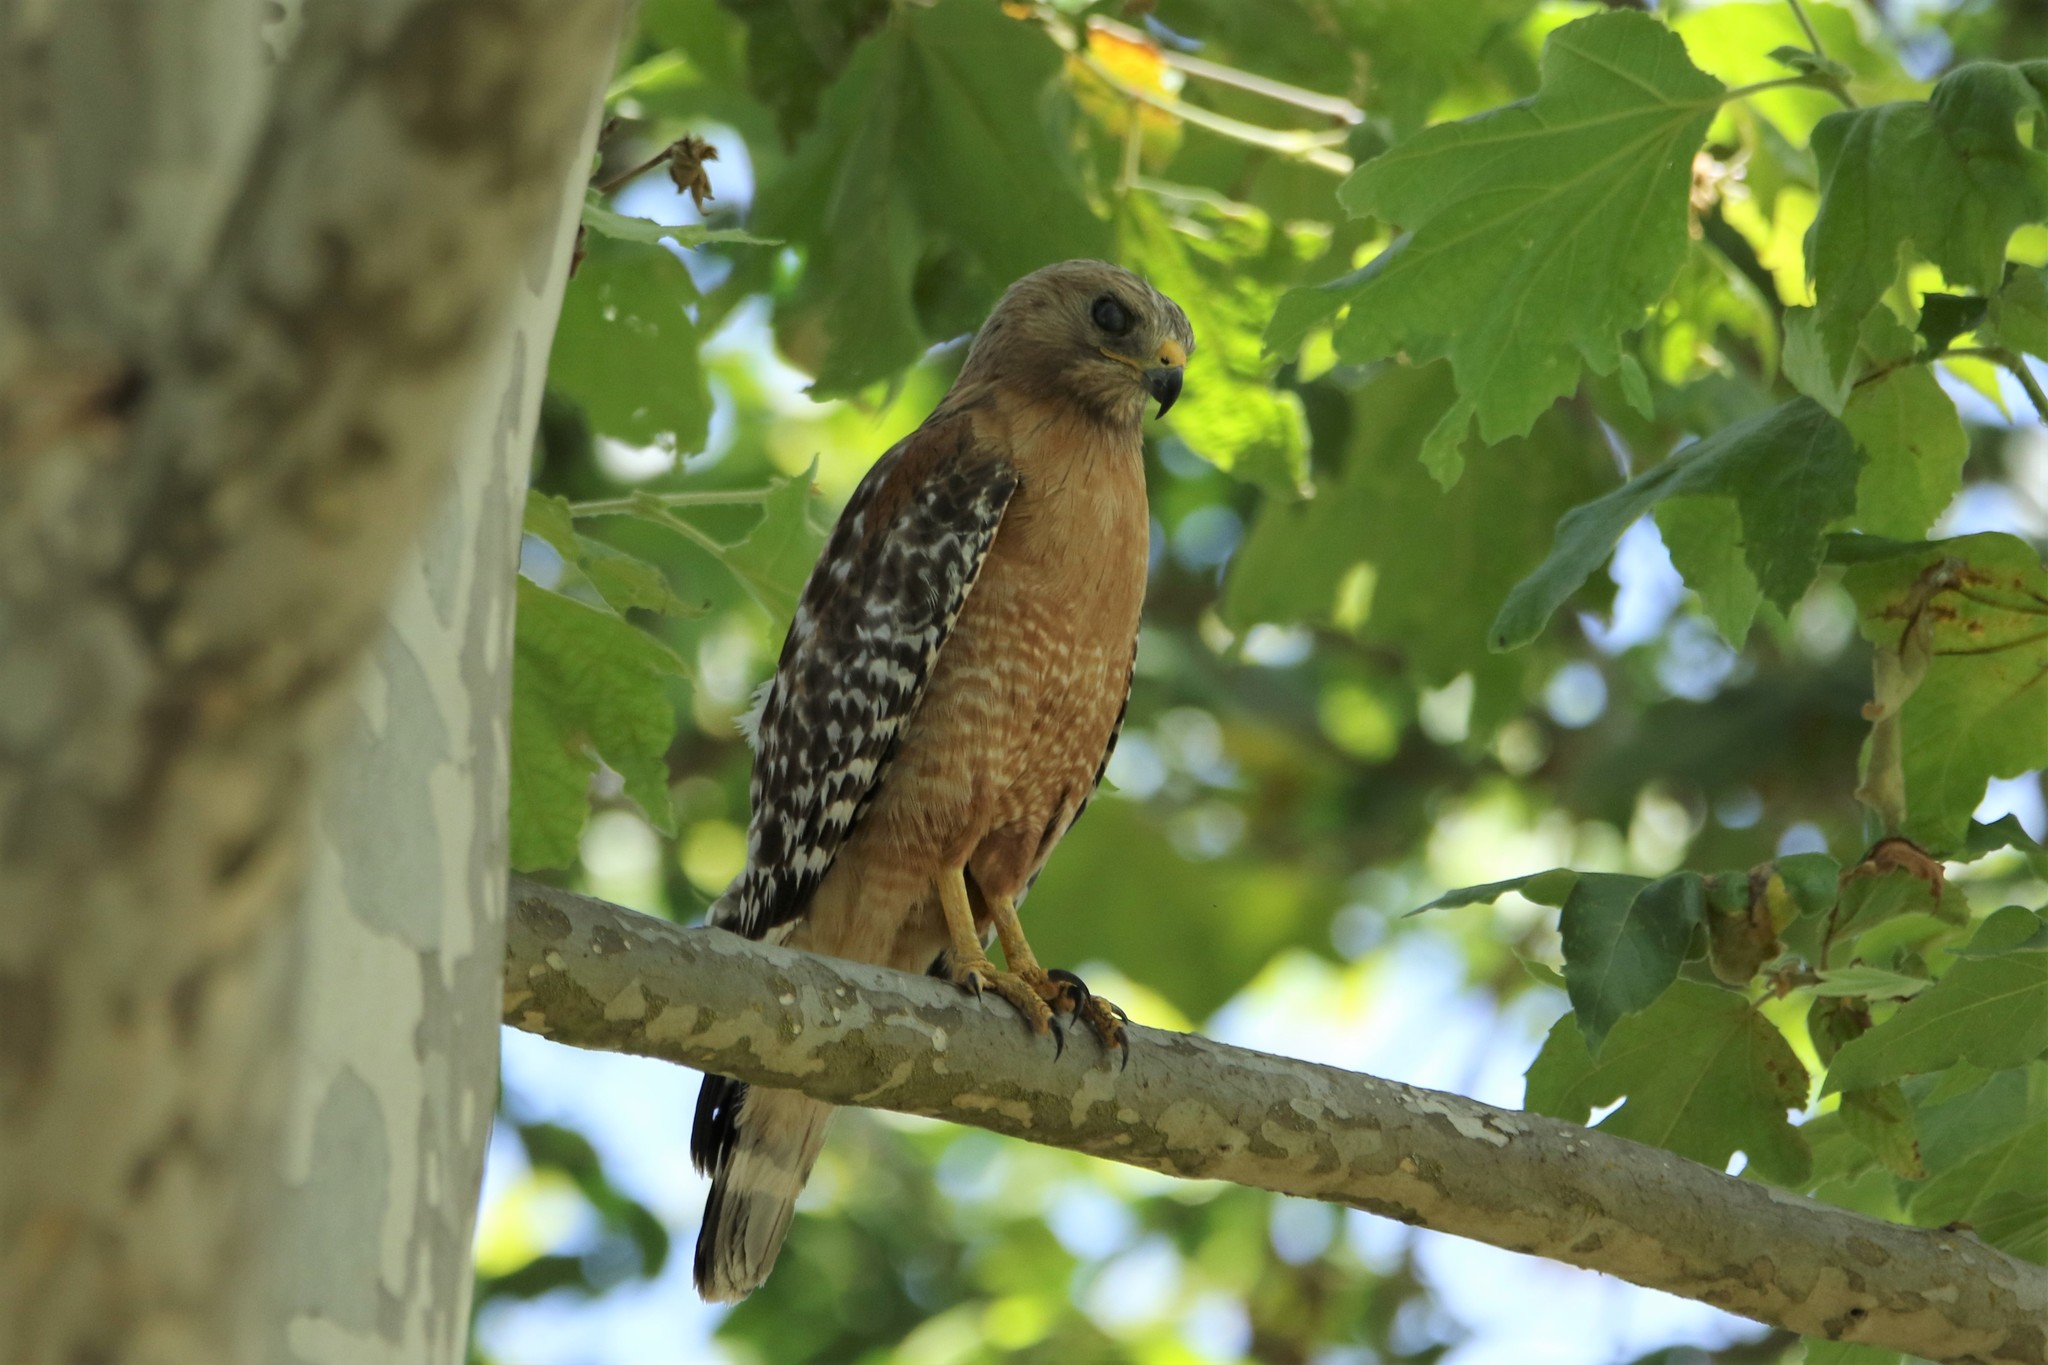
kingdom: Animalia
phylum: Chordata
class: Aves
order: Accipitriformes
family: Accipitridae
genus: Buteo
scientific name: Buteo lineatus
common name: Red-shouldered hawk
